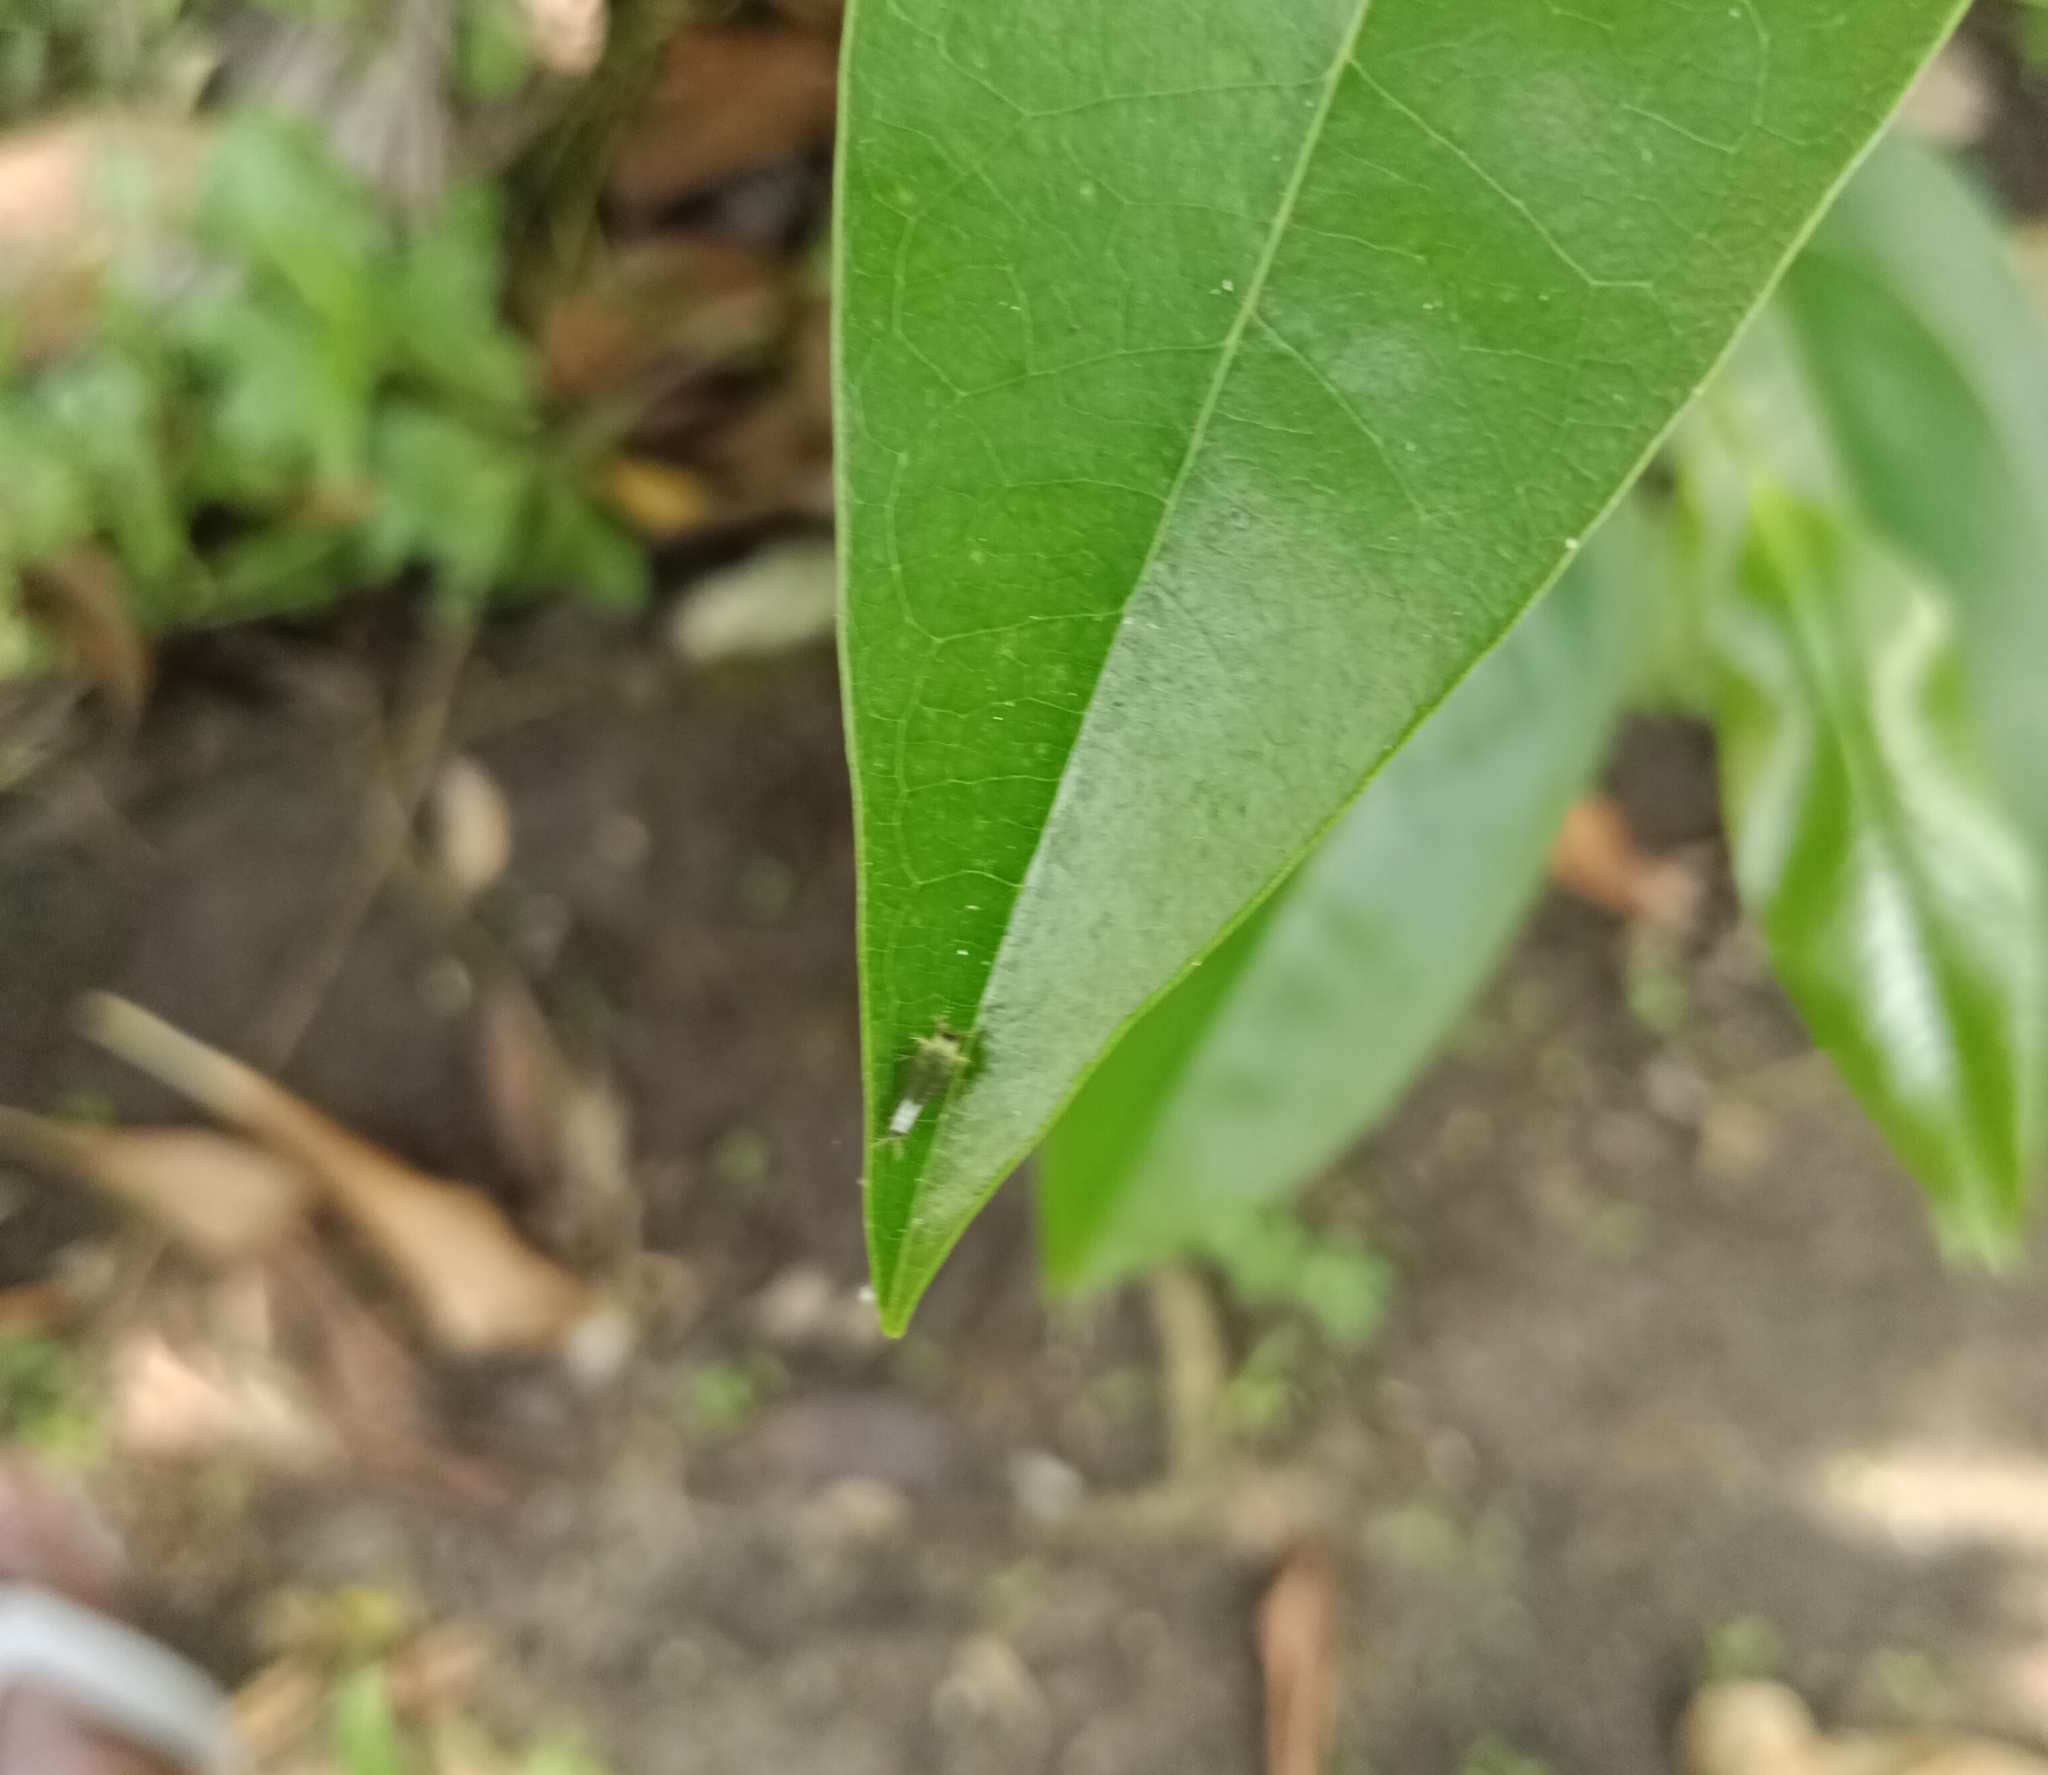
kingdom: Animalia
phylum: Arthropoda
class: Insecta
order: Lepidoptera
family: Papilionidae
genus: Graphium
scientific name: Graphium agamemnon
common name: Tailed jay
